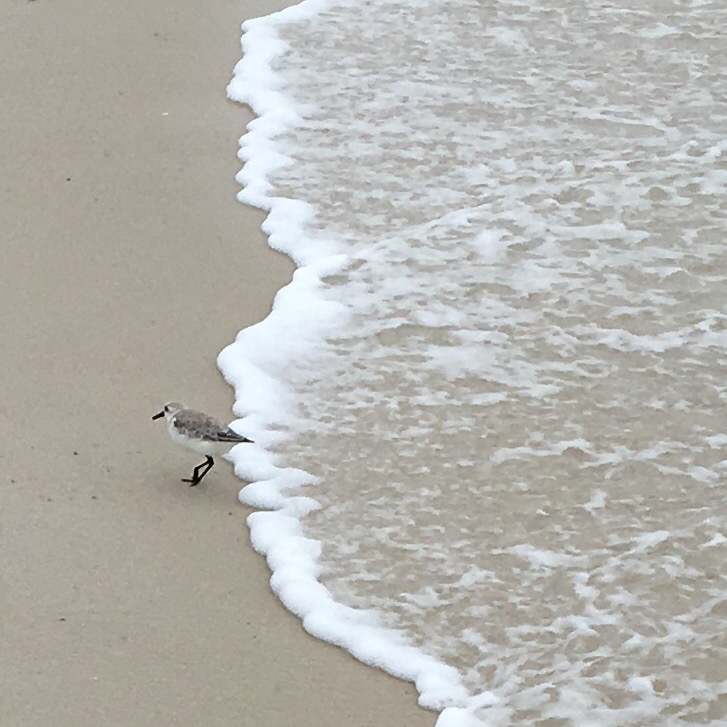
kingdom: Animalia
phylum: Chordata
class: Aves
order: Charadriiformes
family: Scolopacidae
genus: Calidris
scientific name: Calidris alba
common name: Sanderling
